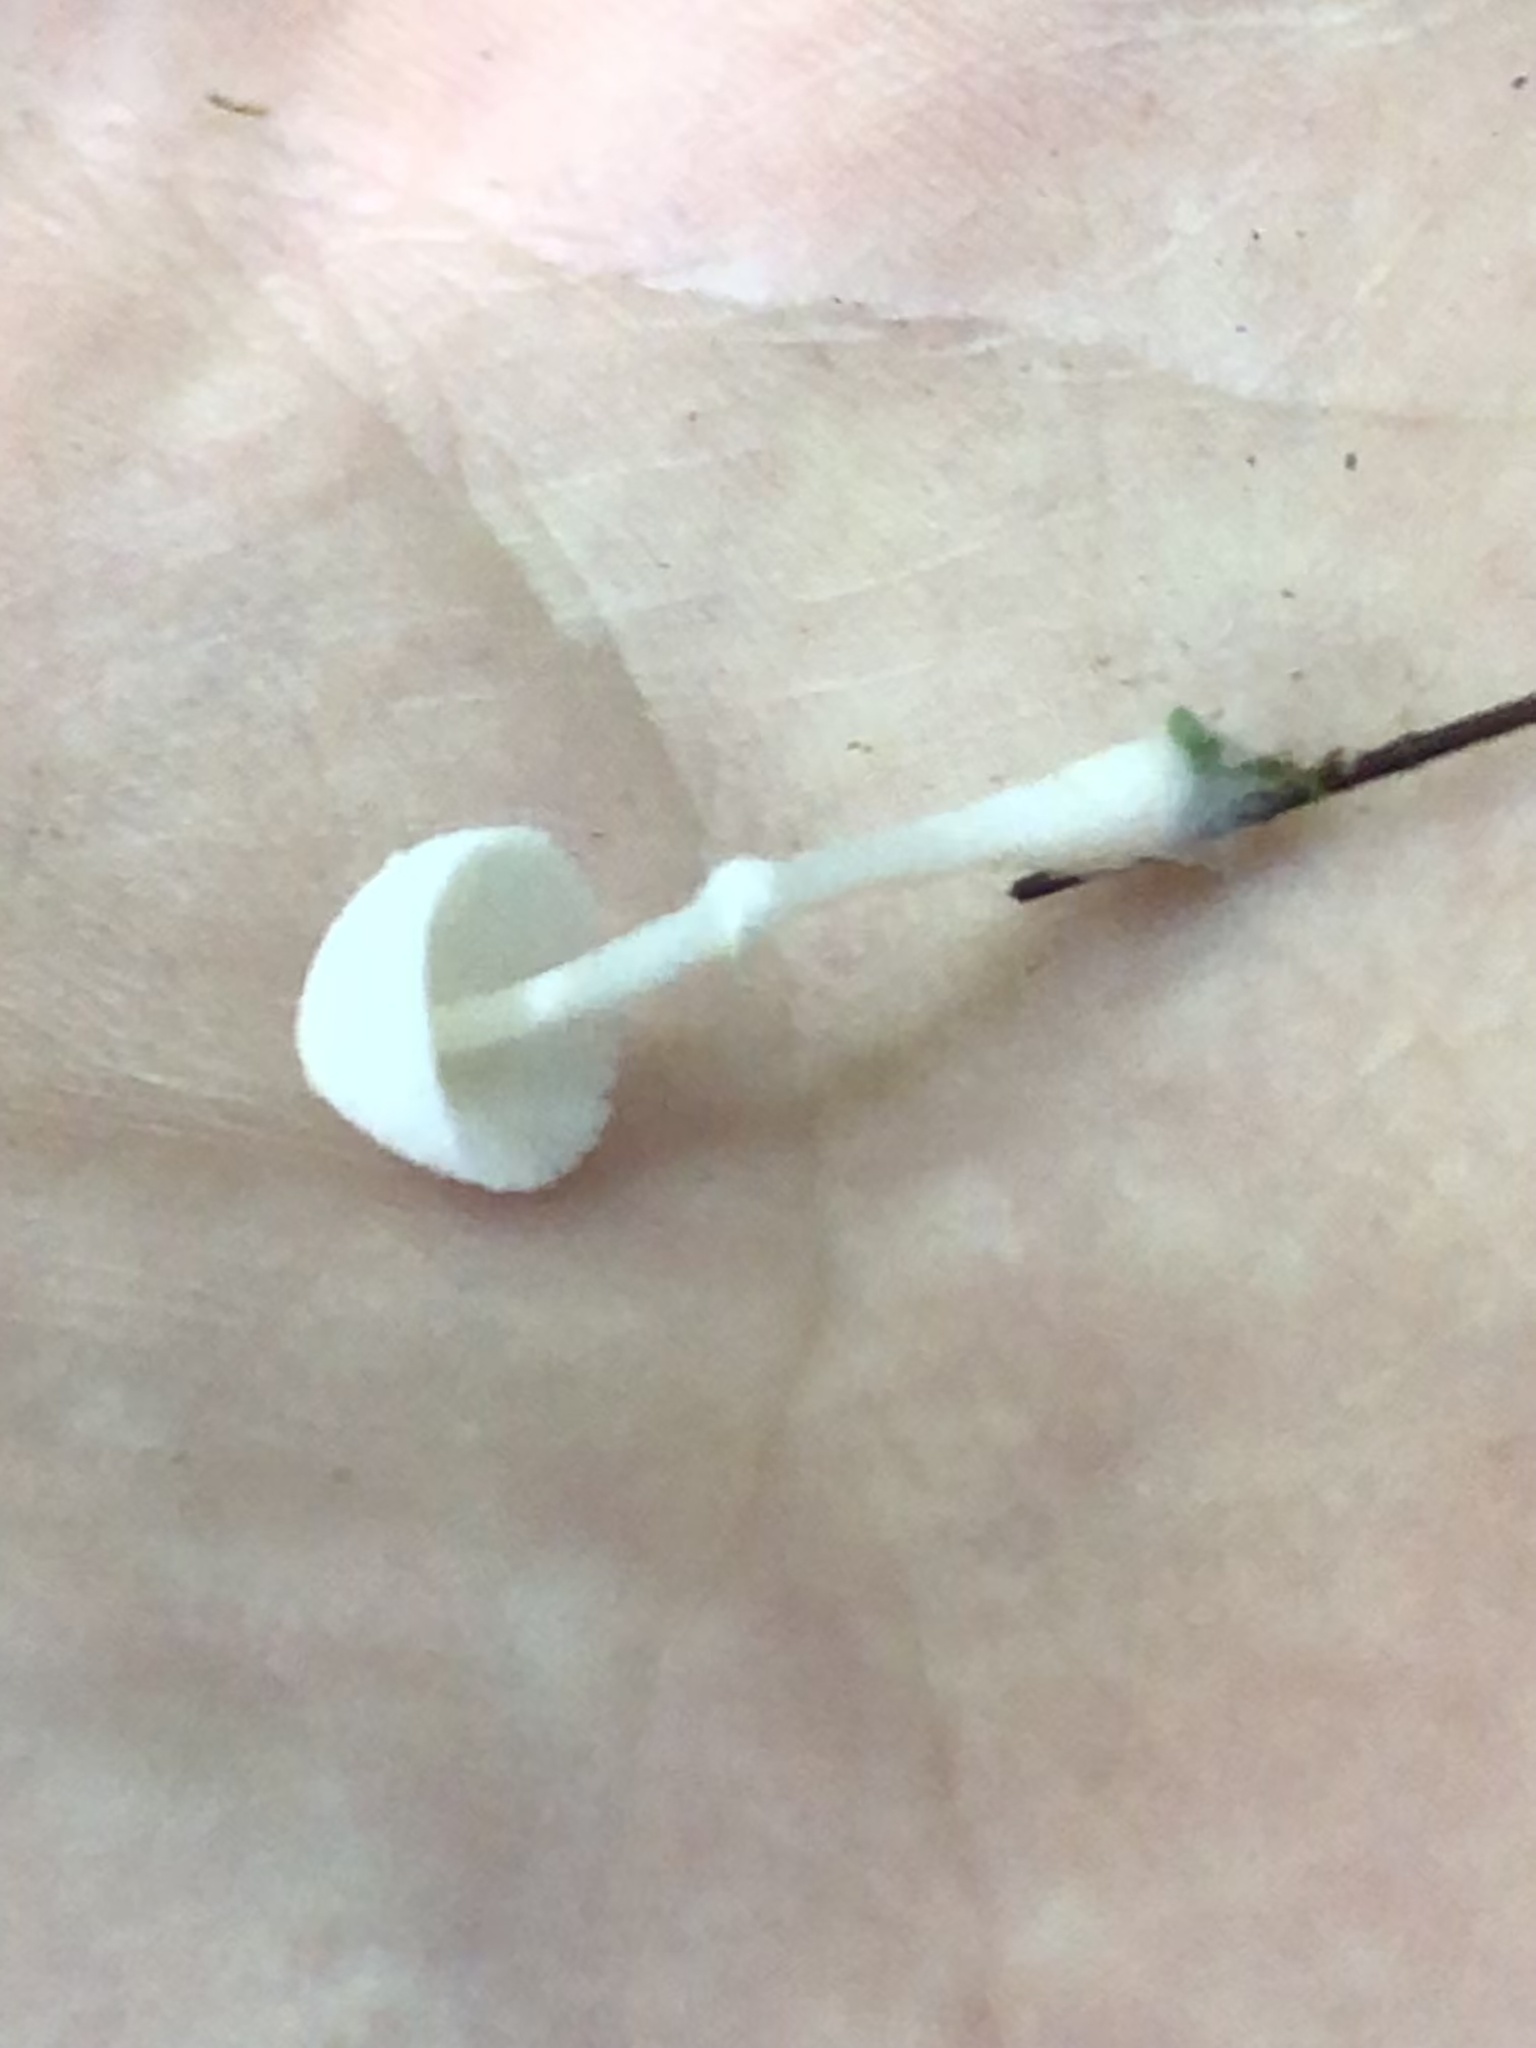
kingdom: Fungi
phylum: Basidiomycota
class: Agaricomycetes
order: Agaricales
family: Agaricaceae
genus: Leucocoprinus
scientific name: Leucocoprinus cretaceus
